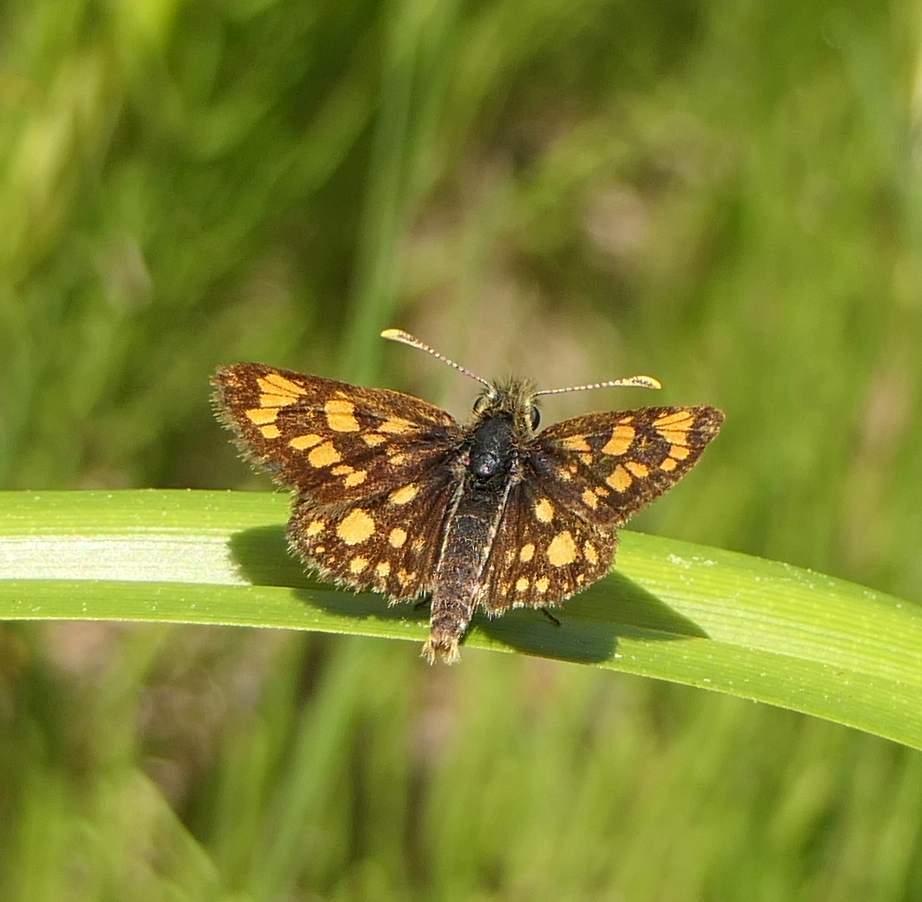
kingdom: Animalia
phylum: Arthropoda
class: Insecta
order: Lepidoptera
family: Hesperiidae
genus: Carterocephalus
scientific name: Carterocephalus mandan
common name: Arctic skipperling
